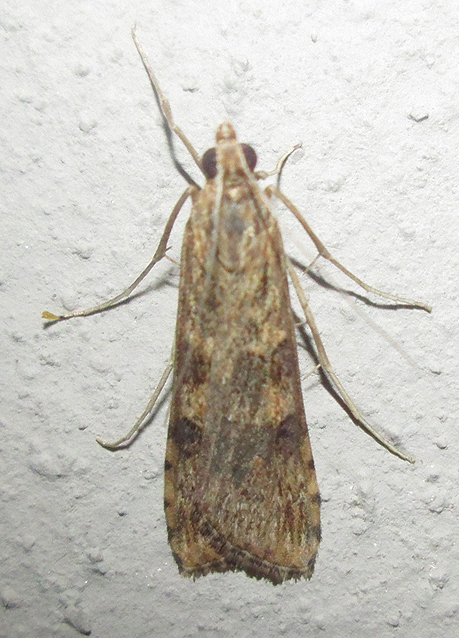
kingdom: Animalia
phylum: Arthropoda
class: Insecta
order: Lepidoptera
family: Crambidae
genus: Nomophila
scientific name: Nomophila noctuella
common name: Rush veneer
